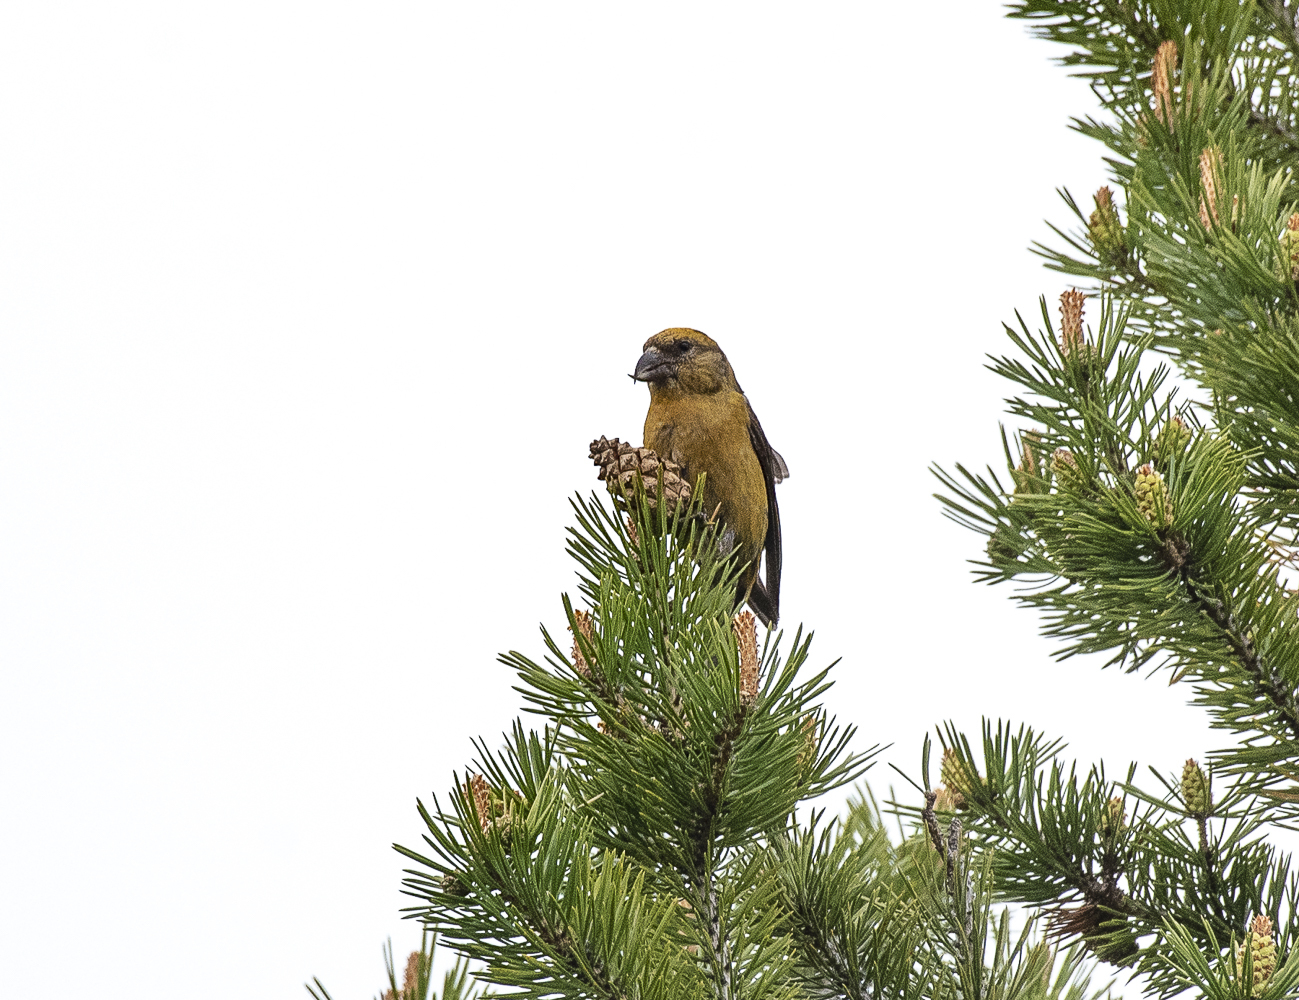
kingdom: Animalia
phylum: Chordata
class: Aves
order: Passeriformes
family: Fringillidae
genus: Loxia
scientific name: Loxia curvirostra
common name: Red crossbill
